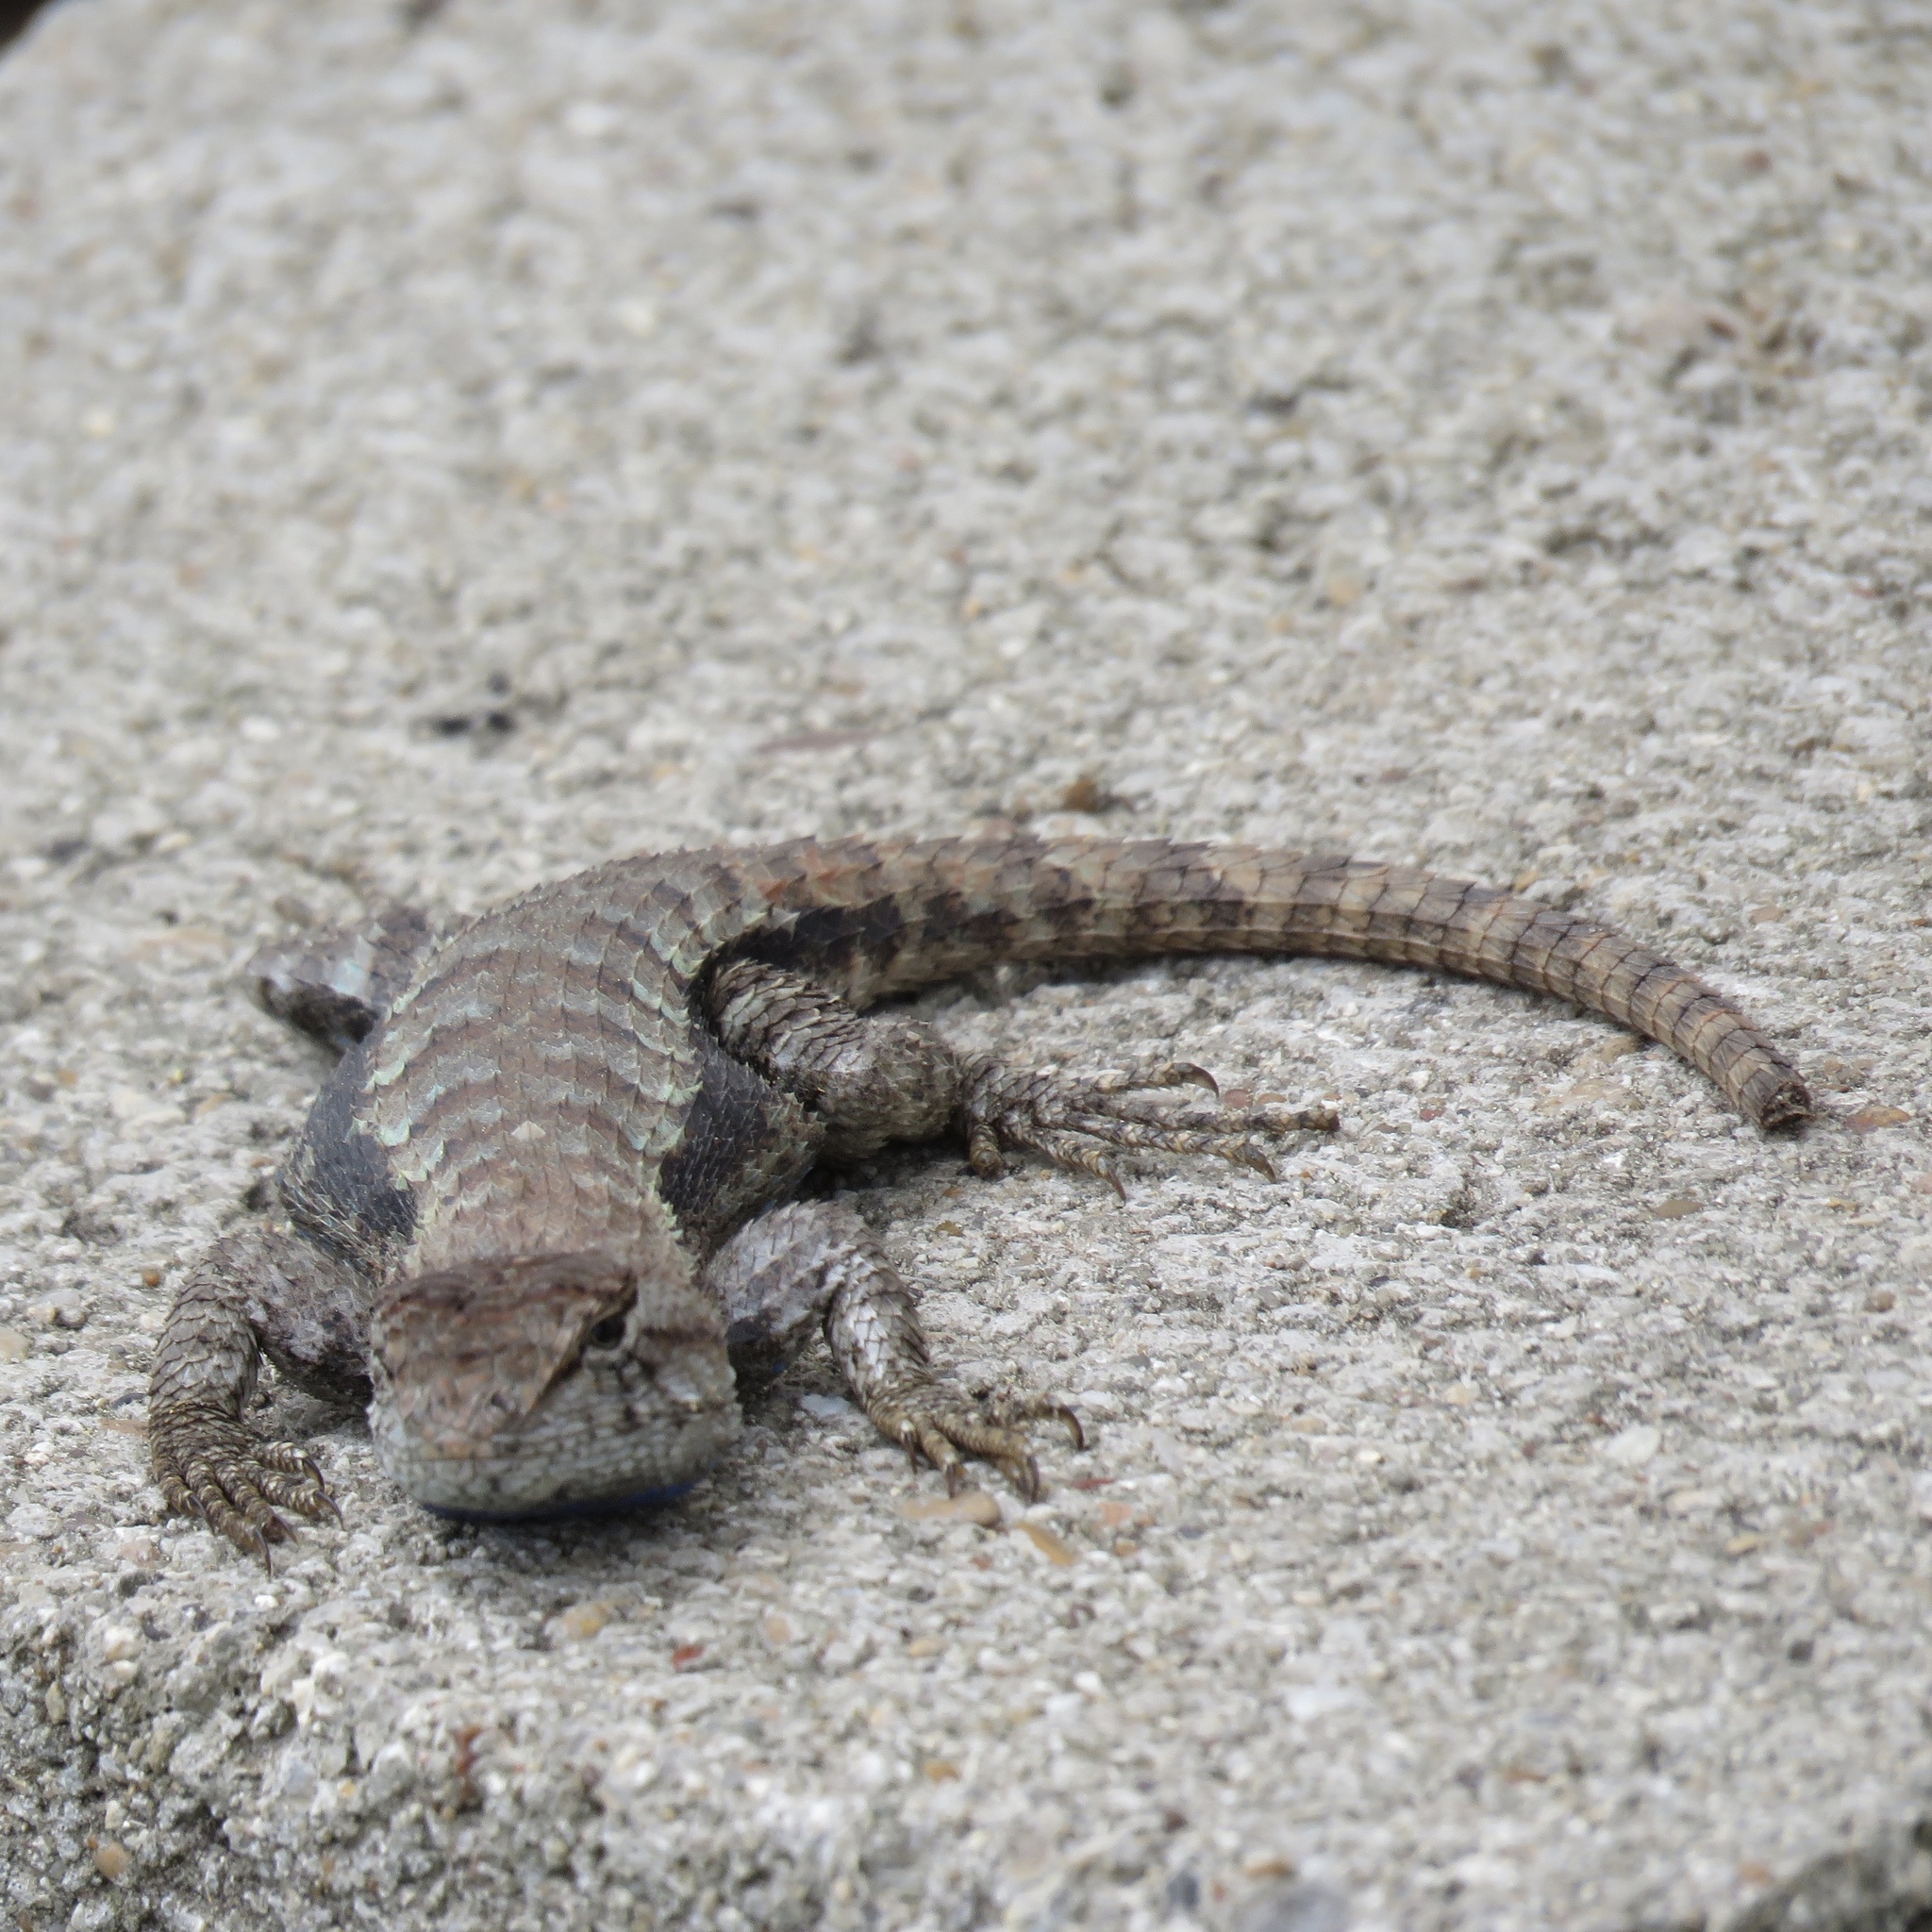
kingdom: Animalia
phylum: Chordata
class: Squamata
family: Phrynosomatidae
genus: Sceloporus
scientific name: Sceloporus consobrinus
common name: Southern prairie lizard
